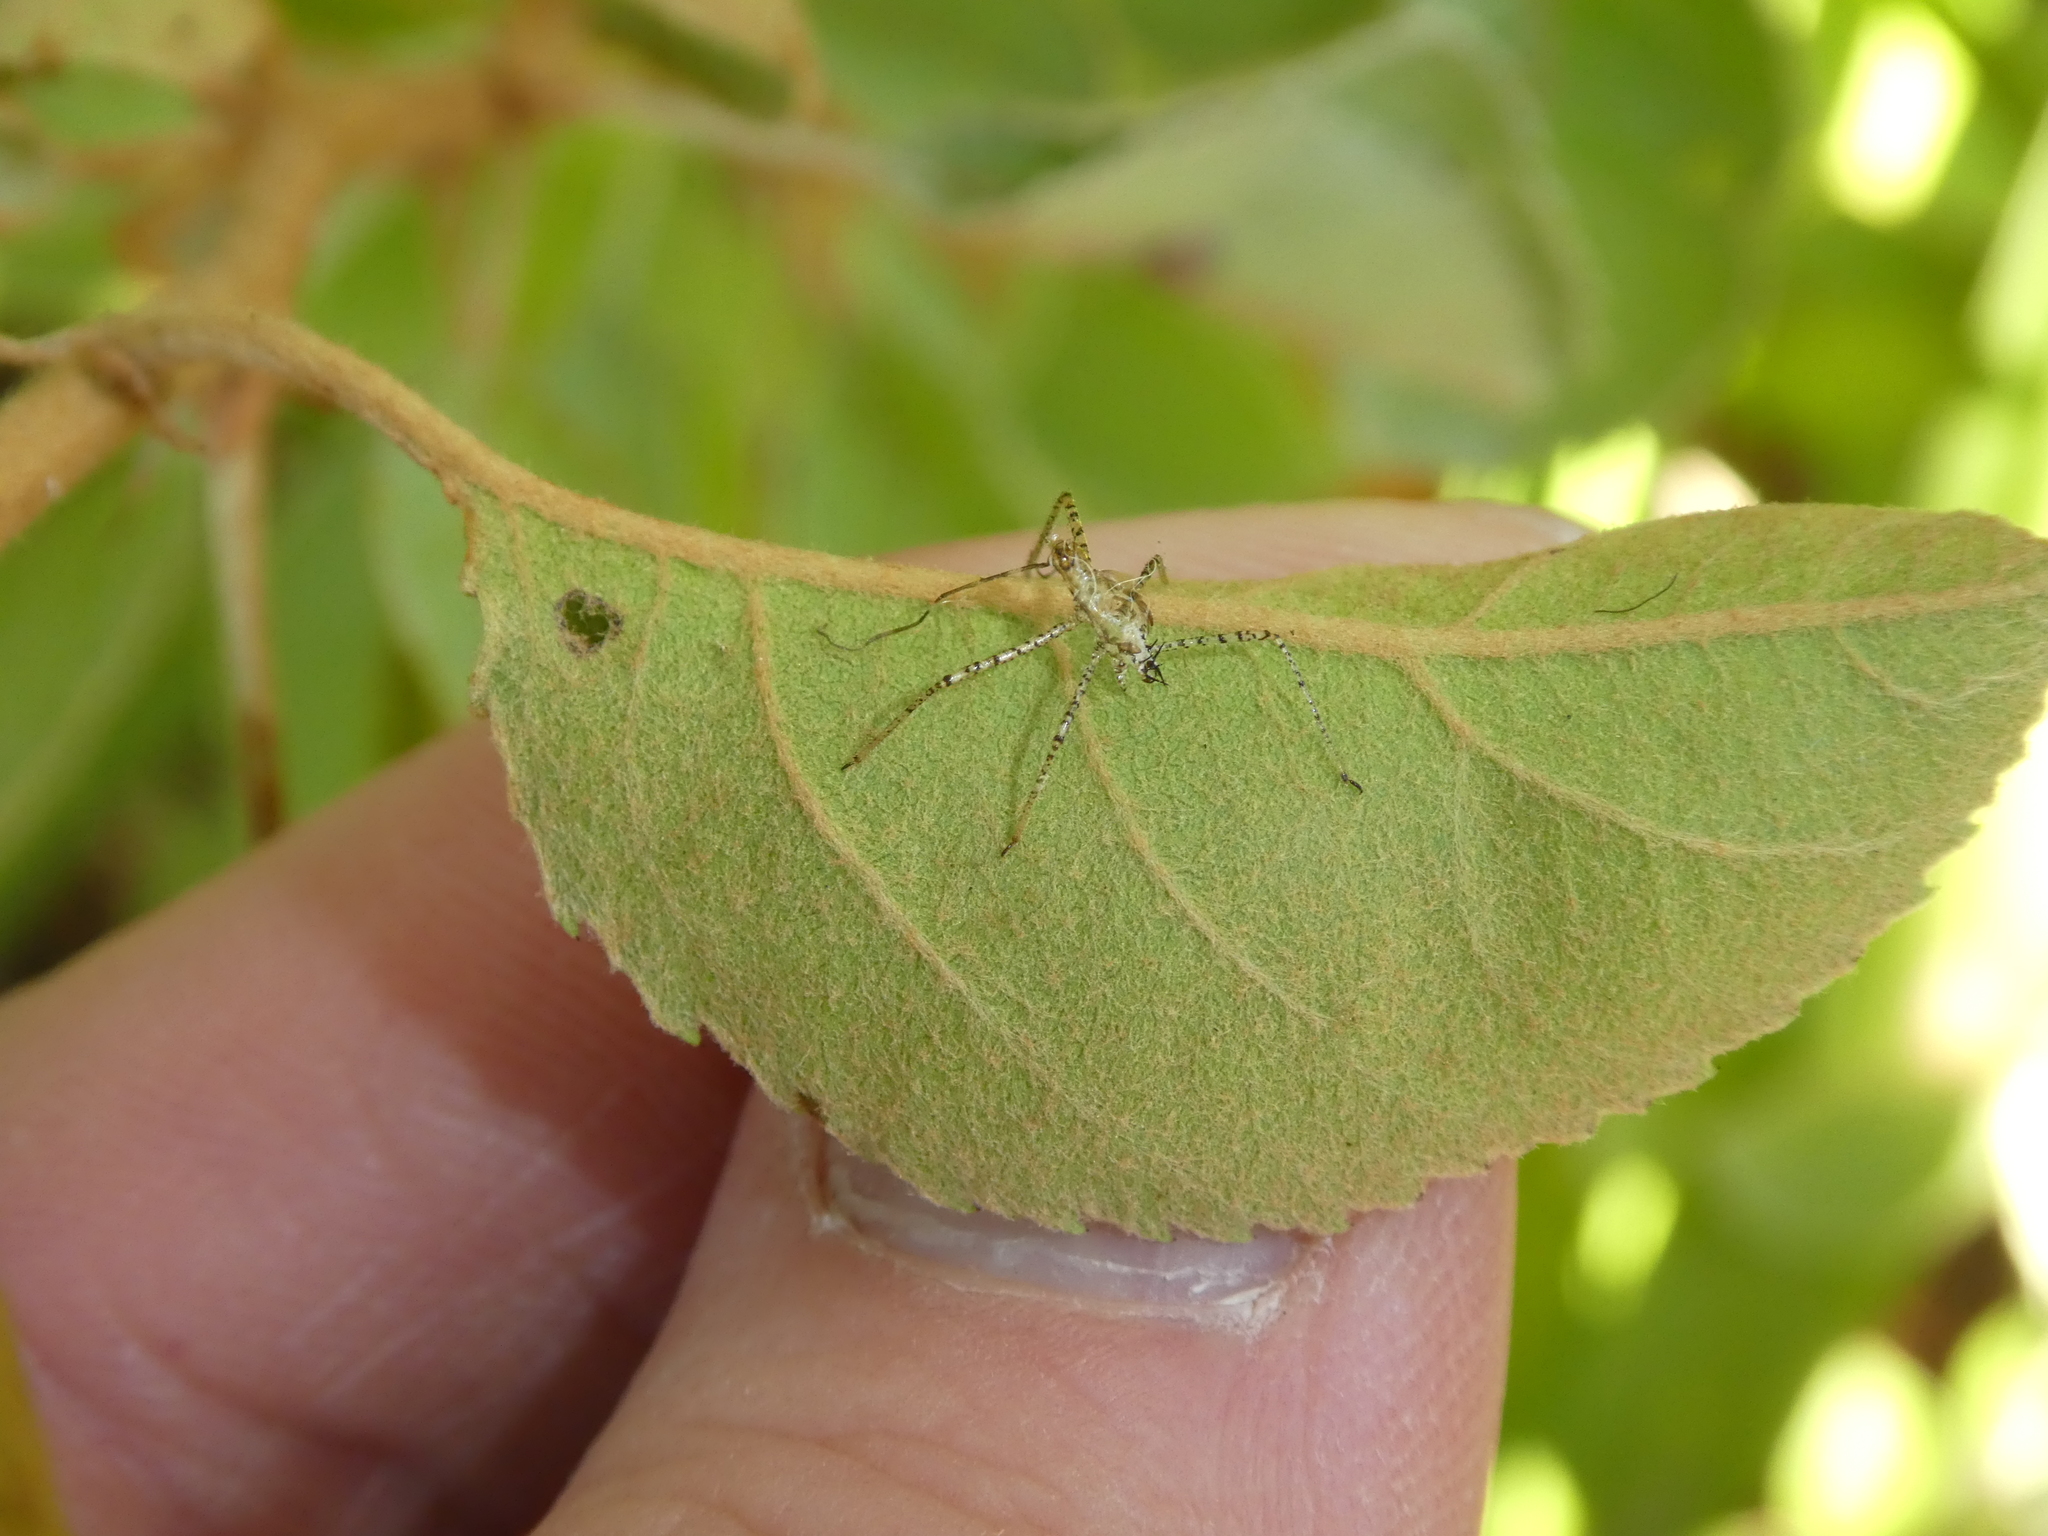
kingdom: Animalia
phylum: Arthropoda
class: Insecta
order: Hemiptera
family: Reduviidae
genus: Zelus
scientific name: Zelus renardii
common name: Assassin bug
